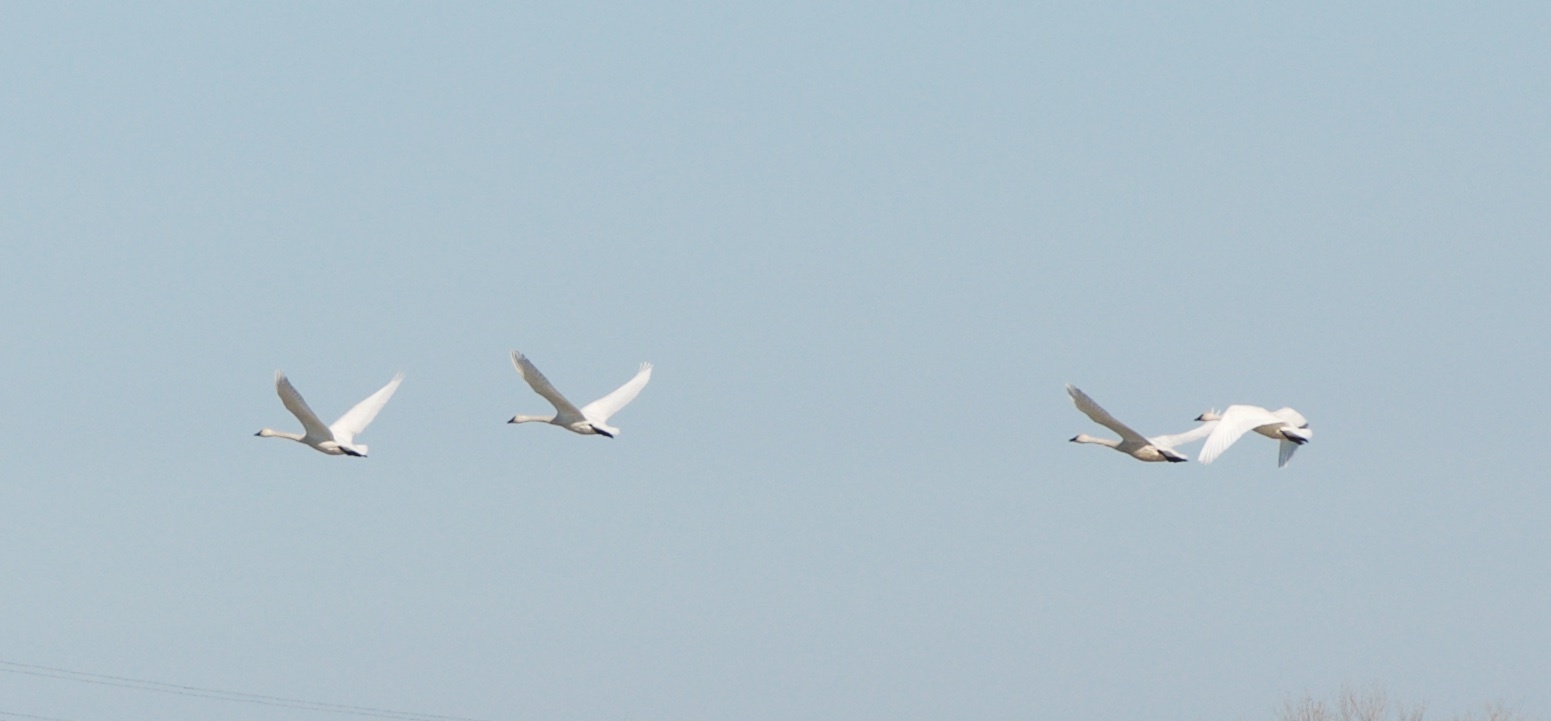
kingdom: Animalia
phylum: Chordata
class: Aves
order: Anseriformes
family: Anatidae
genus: Cygnus
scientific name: Cygnus columbianus
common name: Tundra swan
